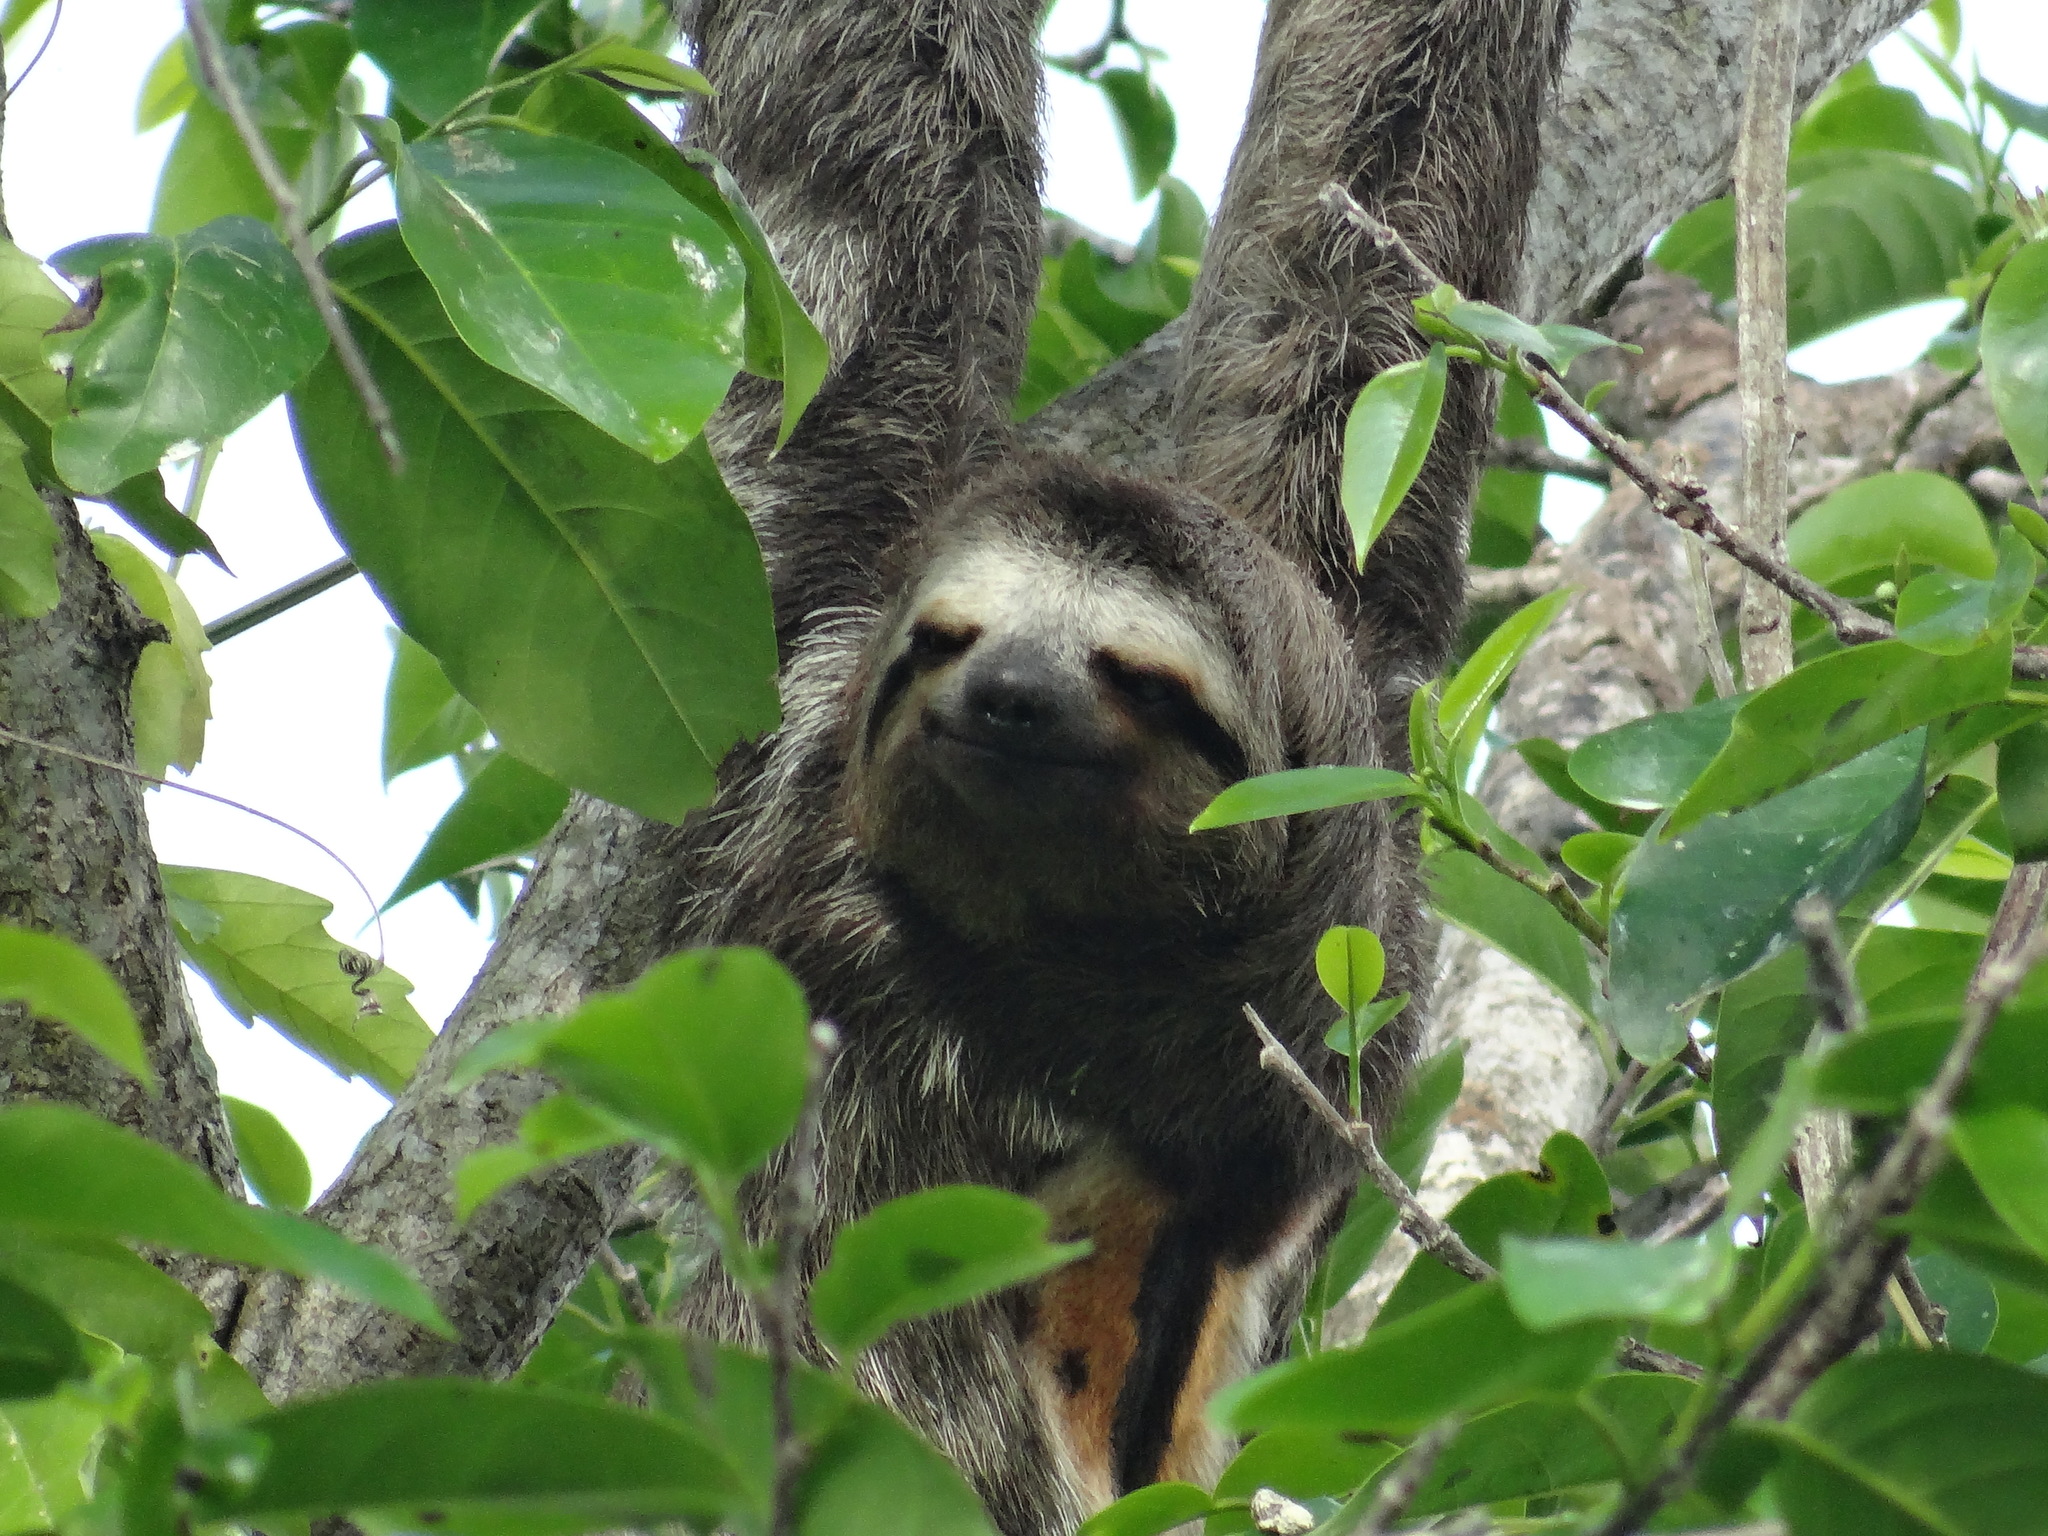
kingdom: Animalia
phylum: Chordata
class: Mammalia
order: Pilosa
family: Bradypodidae
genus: Bradypus
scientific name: Bradypus variegatus
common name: Brown-throated three-toed sloth
